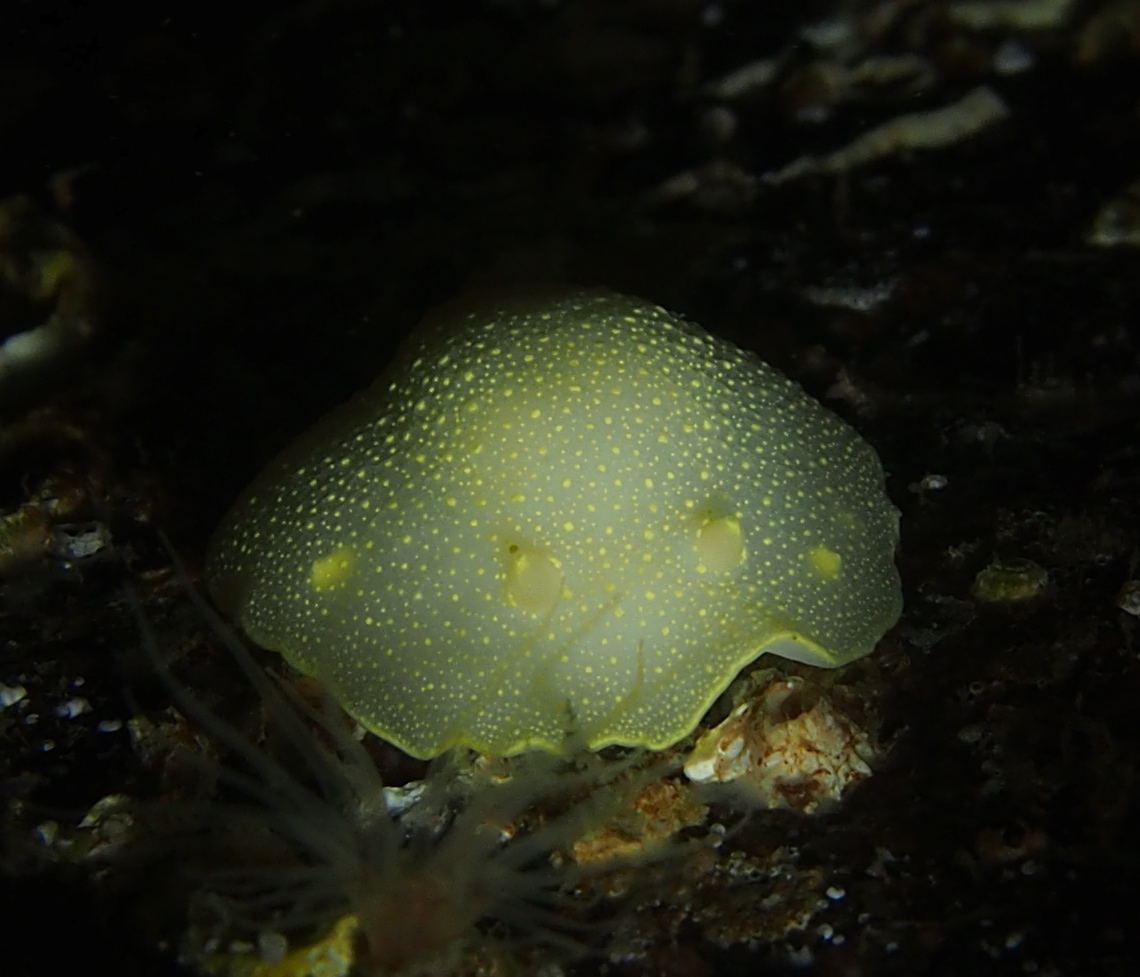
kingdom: Animalia
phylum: Mollusca
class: Gastropoda
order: Nudibranchia
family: Cadlinidae
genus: Cadlina
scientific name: Cadlina laevis
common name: White atlantic cadlina
